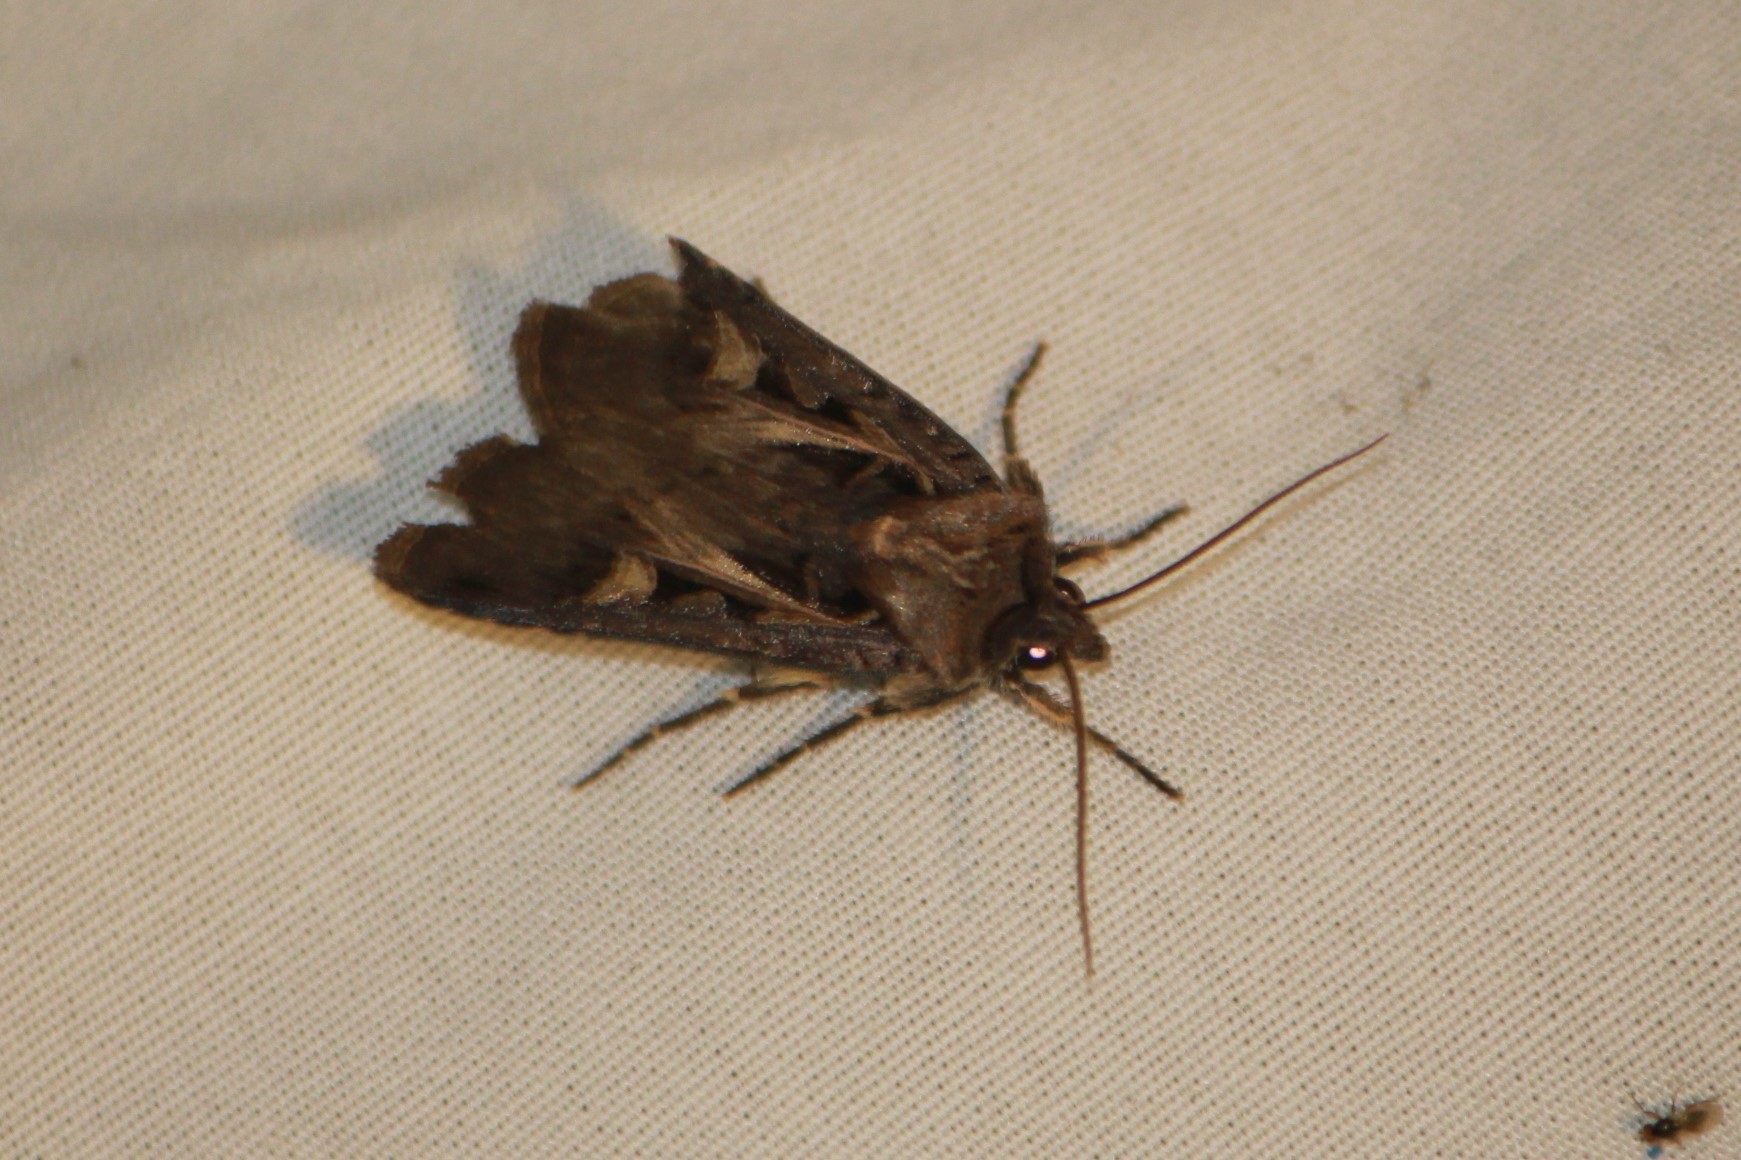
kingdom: Animalia
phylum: Arthropoda
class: Insecta
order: Lepidoptera
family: Noctuidae
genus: Feltia
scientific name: Feltia herilis
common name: Master's dart
